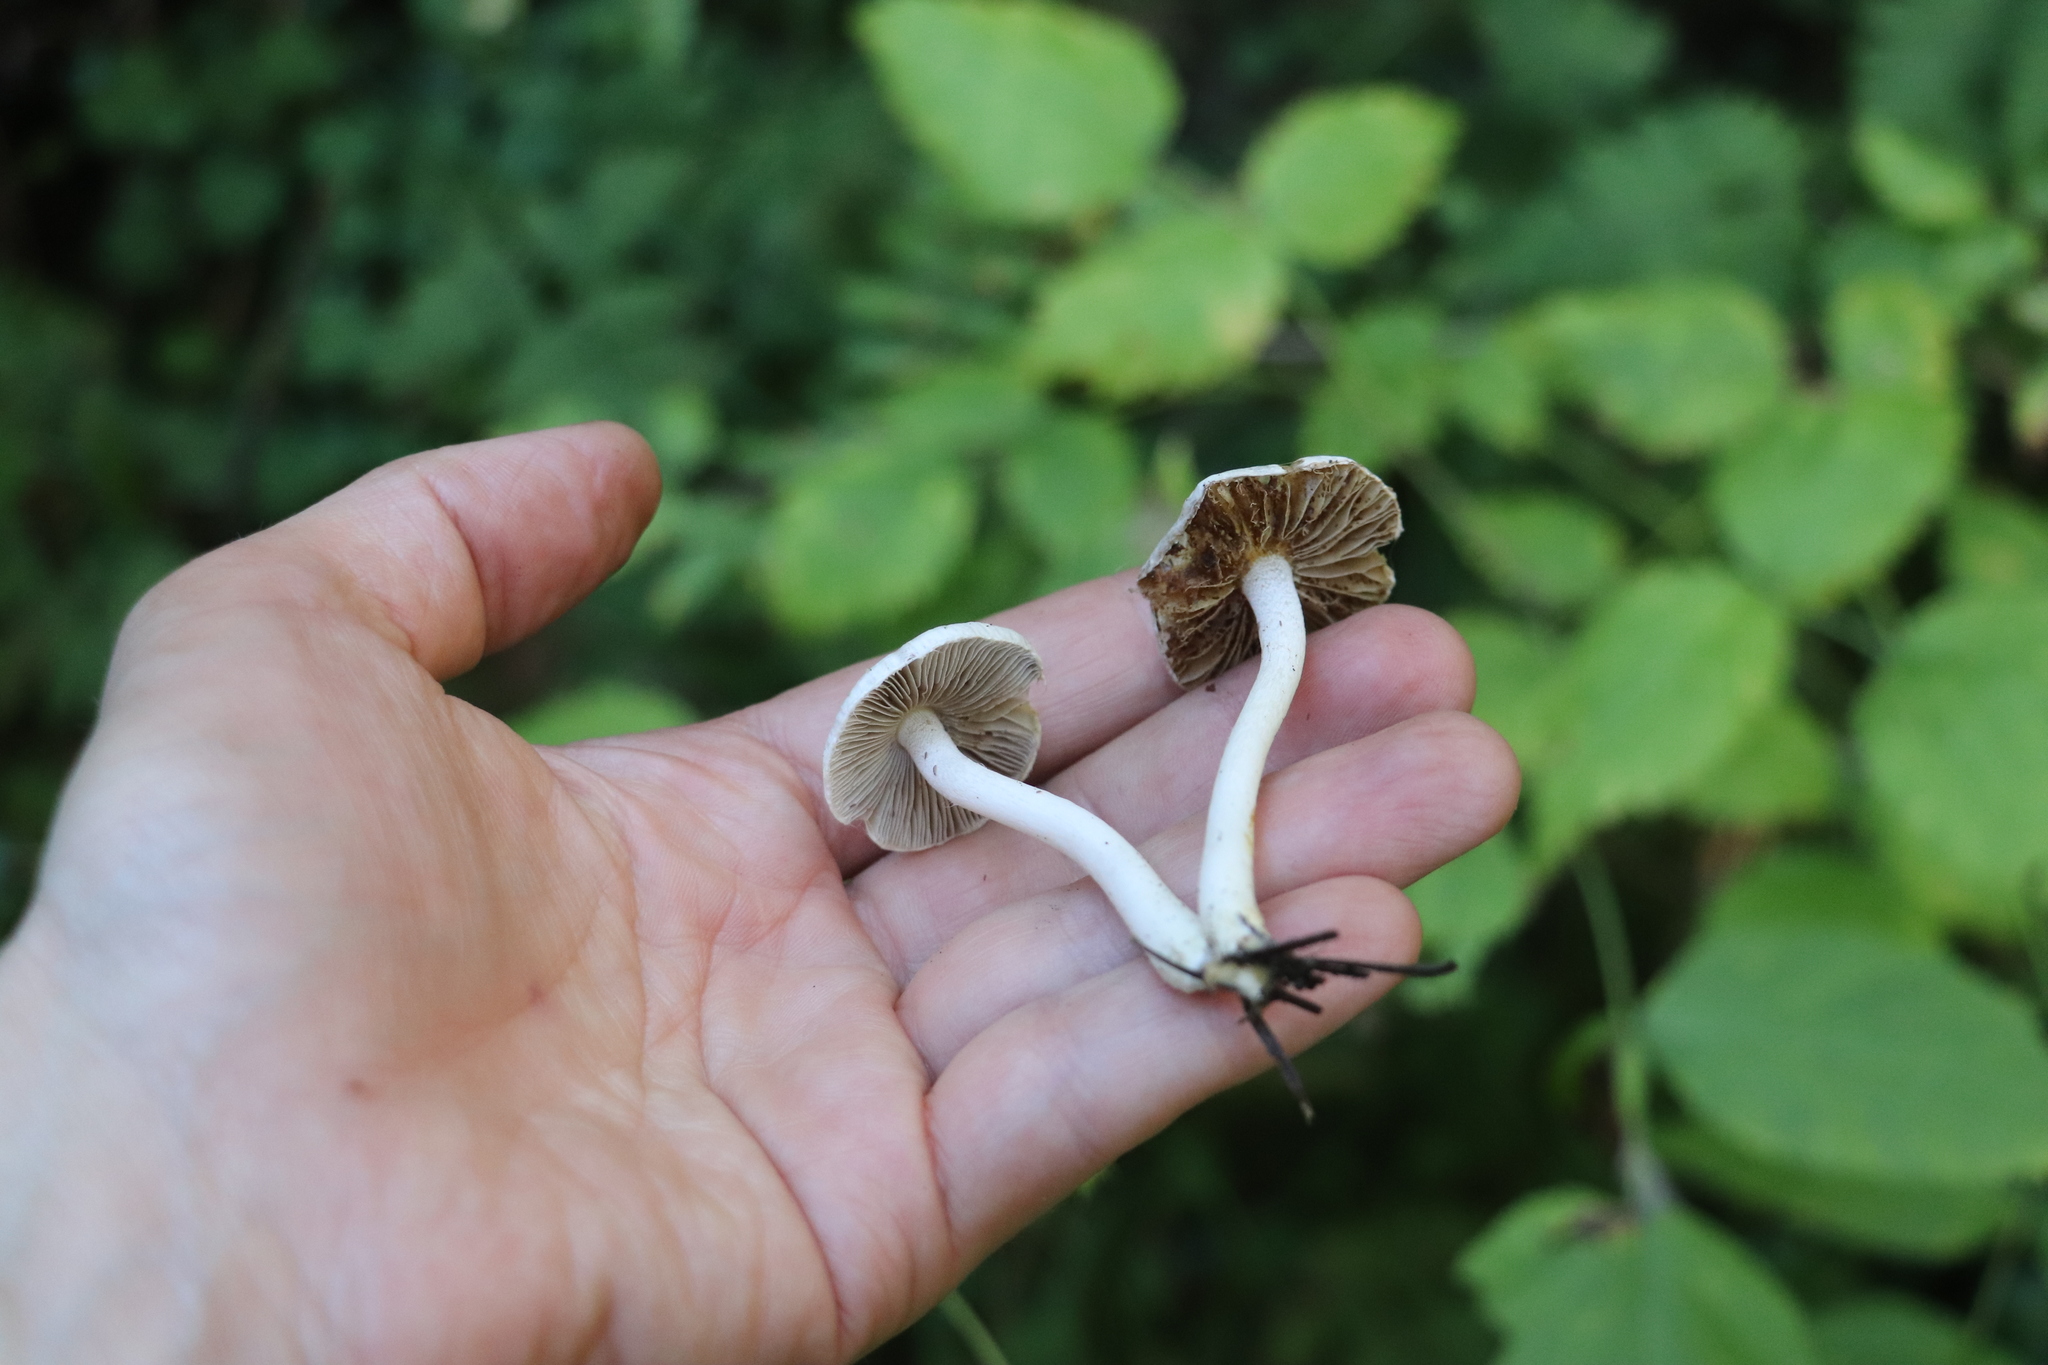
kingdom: Fungi
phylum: Basidiomycota
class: Agaricomycetes
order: Agaricales
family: Inocybaceae
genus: Inocybe
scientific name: Inocybe geophylla
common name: White fibrecap
